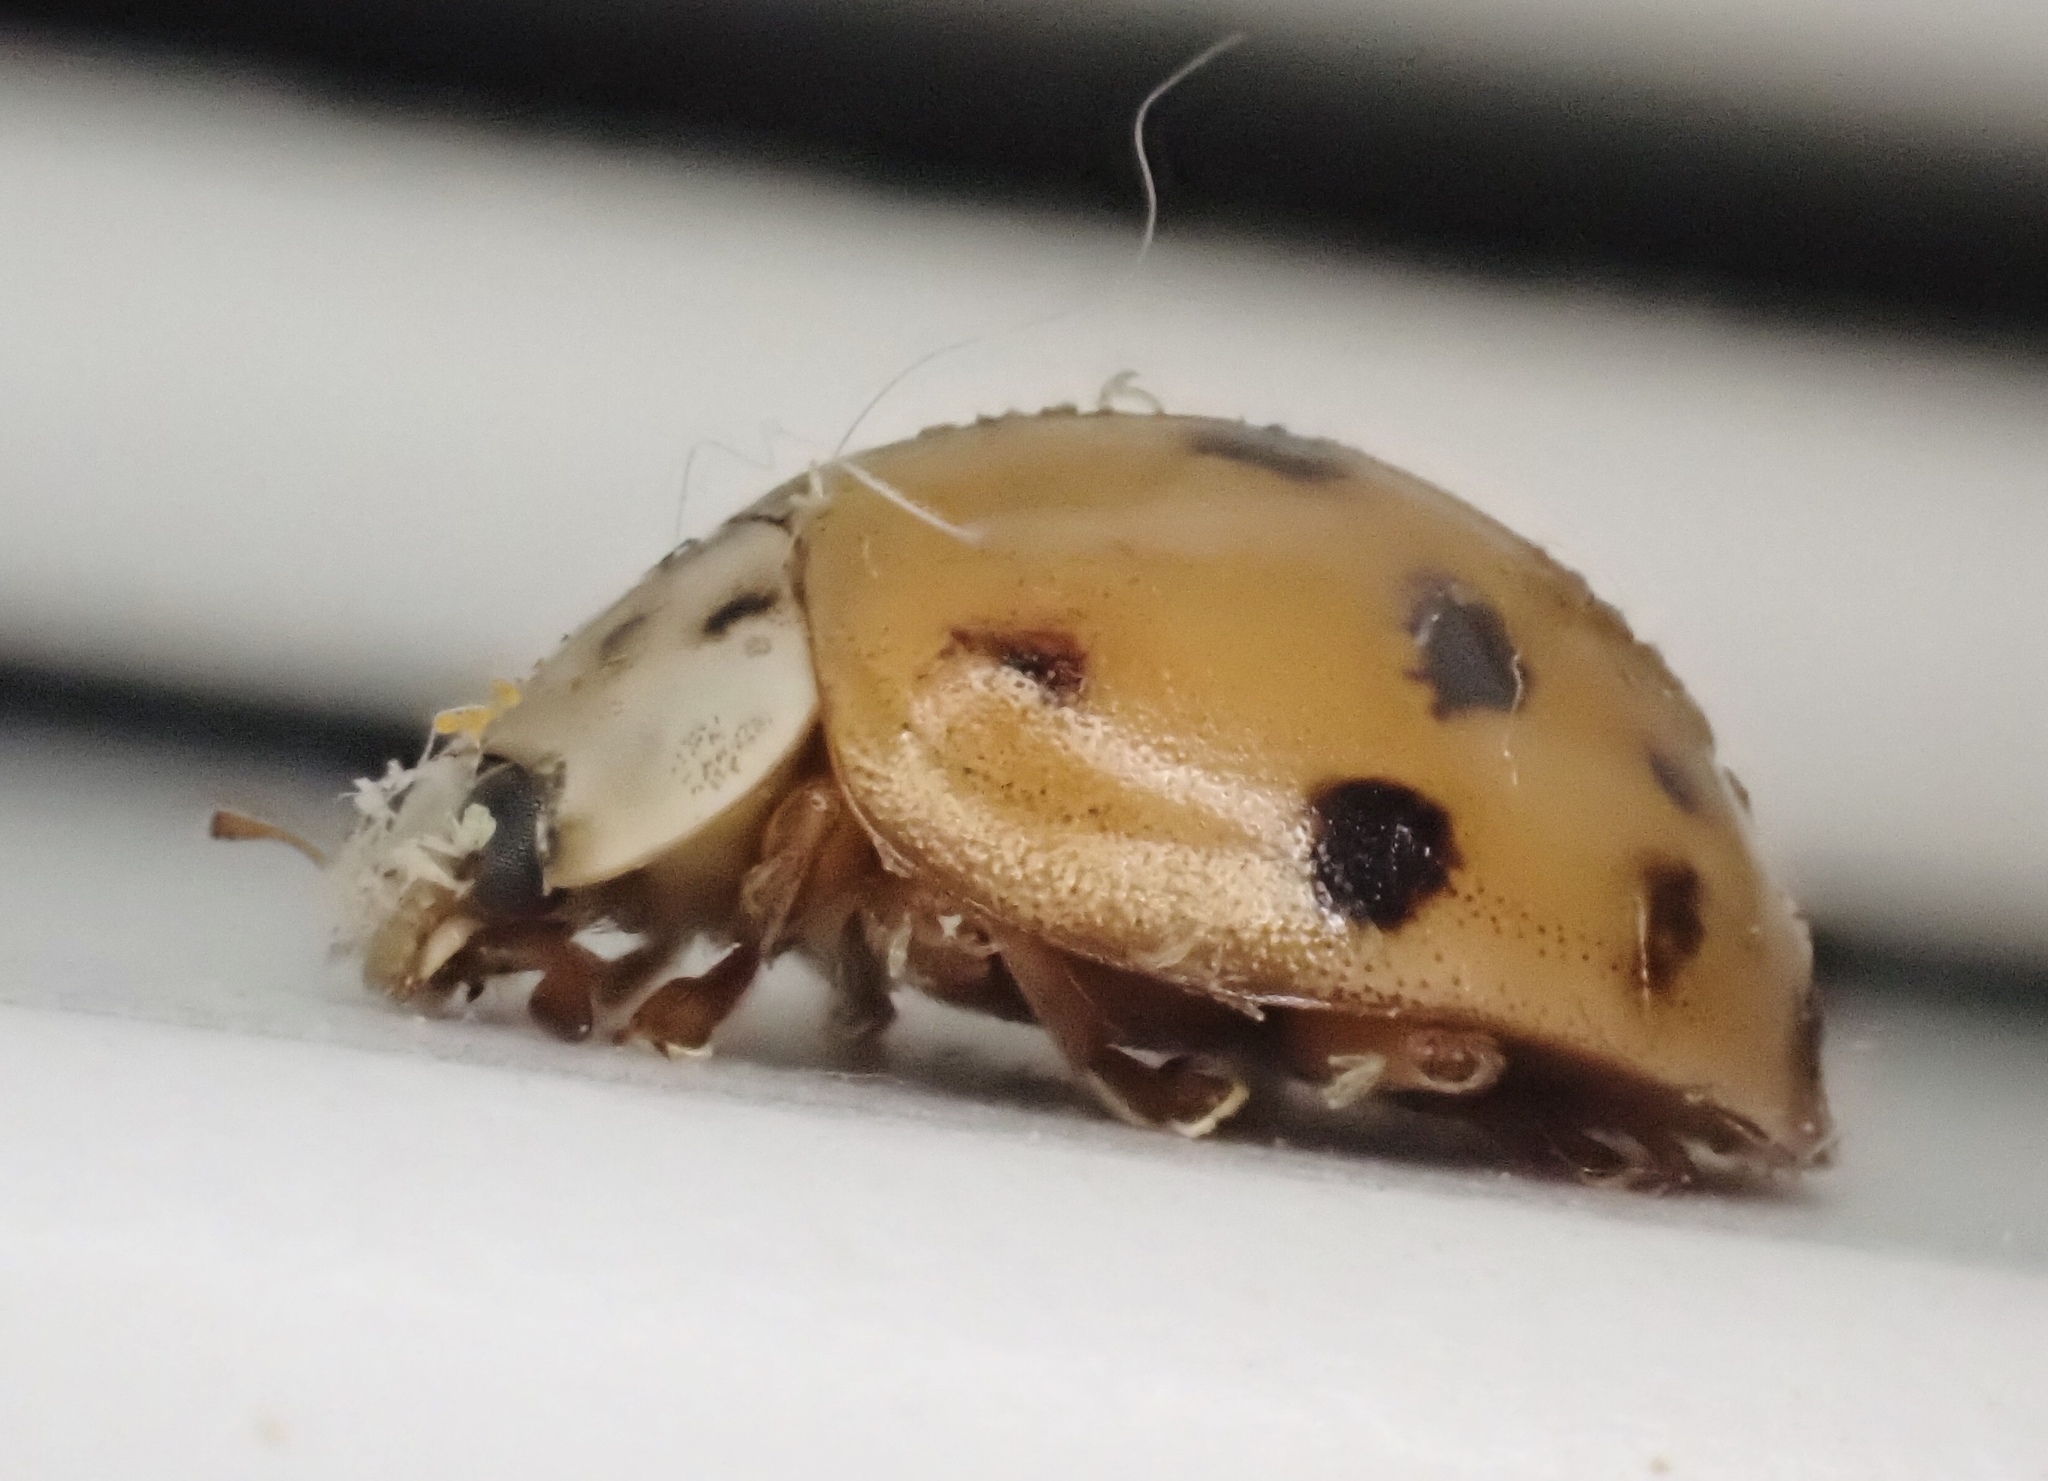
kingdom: Animalia
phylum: Arthropoda
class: Insecta
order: Coleoptera
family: Coccinellidae
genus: Harmonia
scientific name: Harmonia axyridis
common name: Harlequin ladybird
